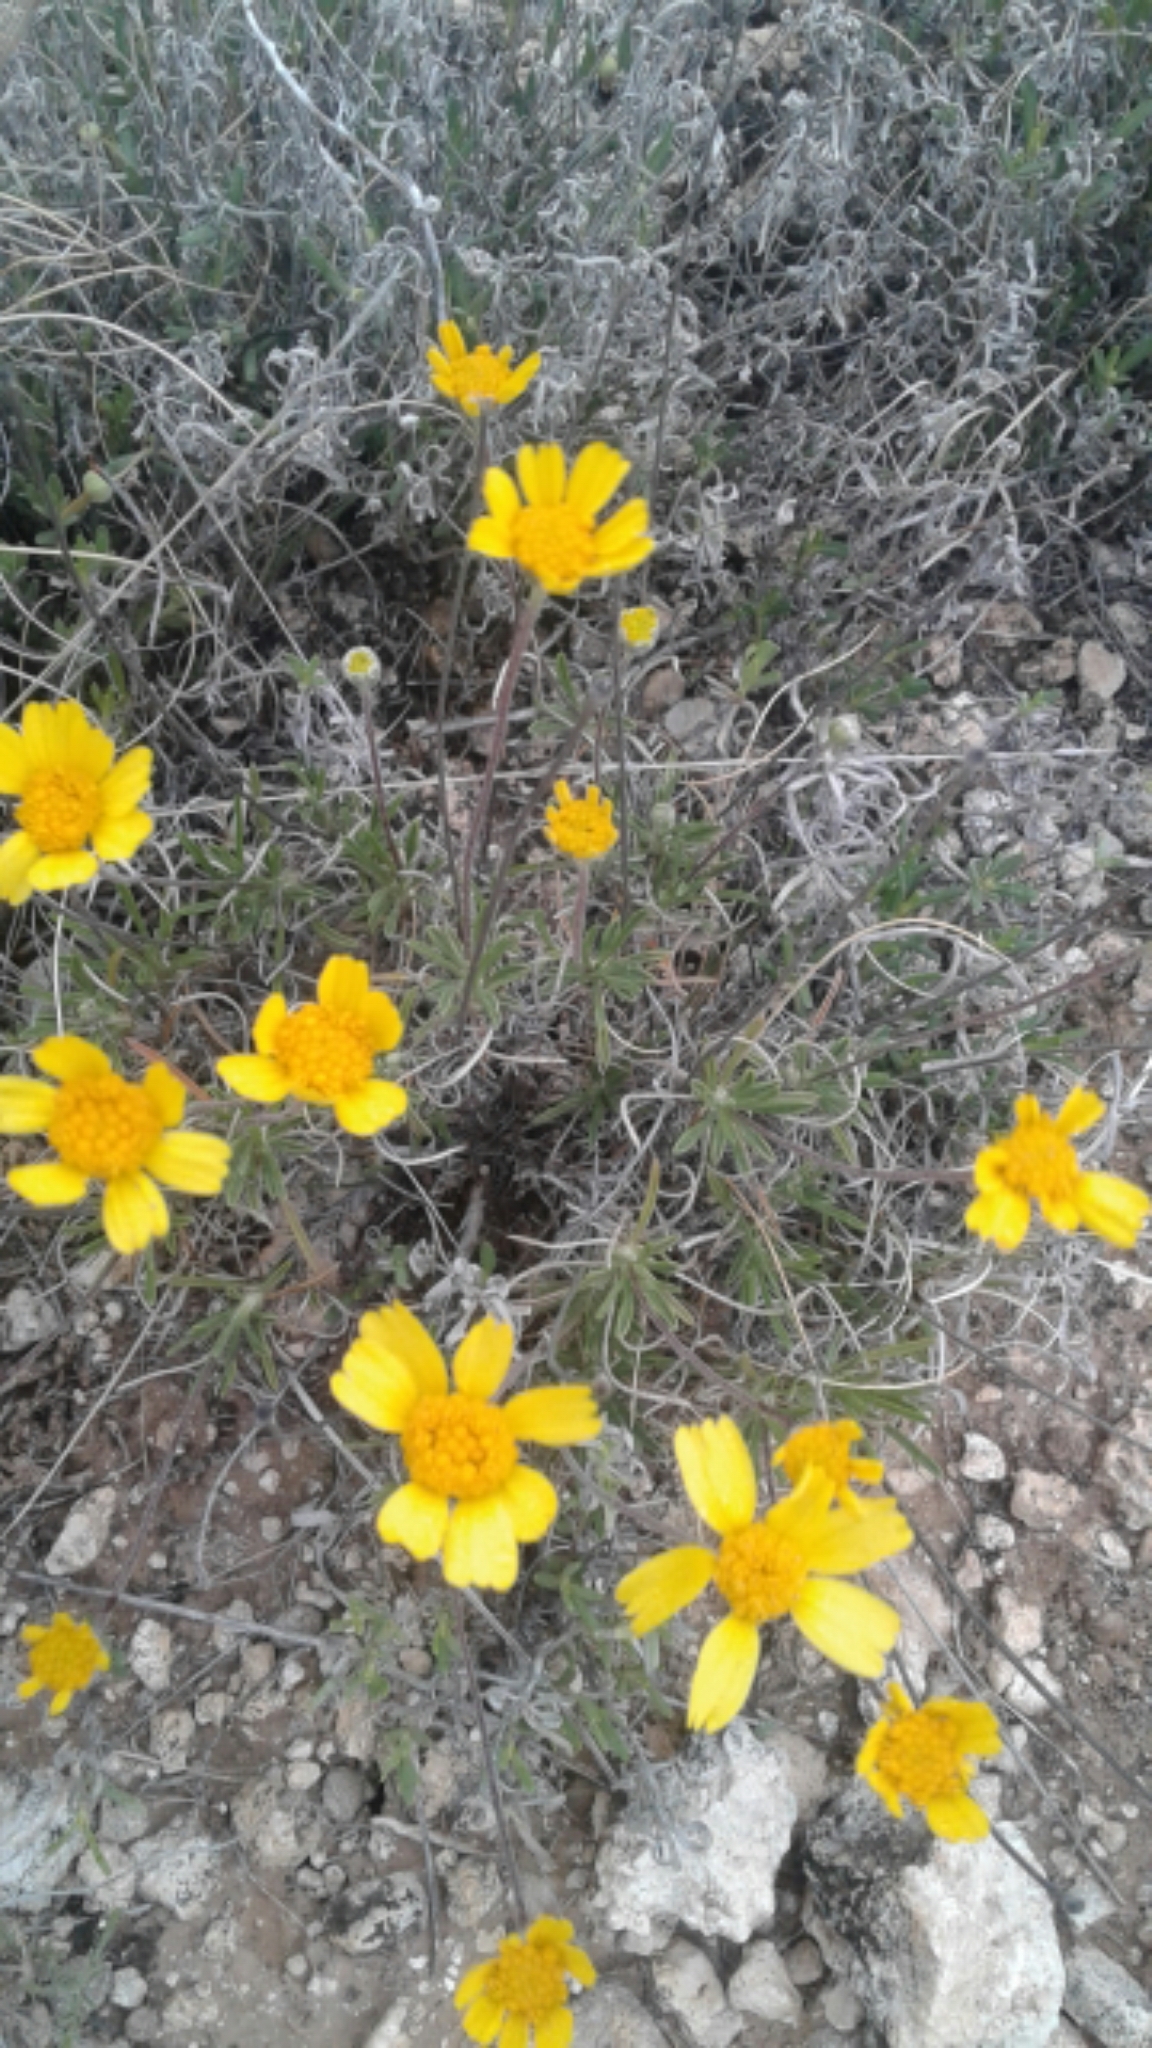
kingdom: Plantae
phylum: Tracheophyta
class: Magnoliopsida
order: Asterales
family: Asteraceae
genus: Tetraneuris
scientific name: Tetraneuris scaposa
